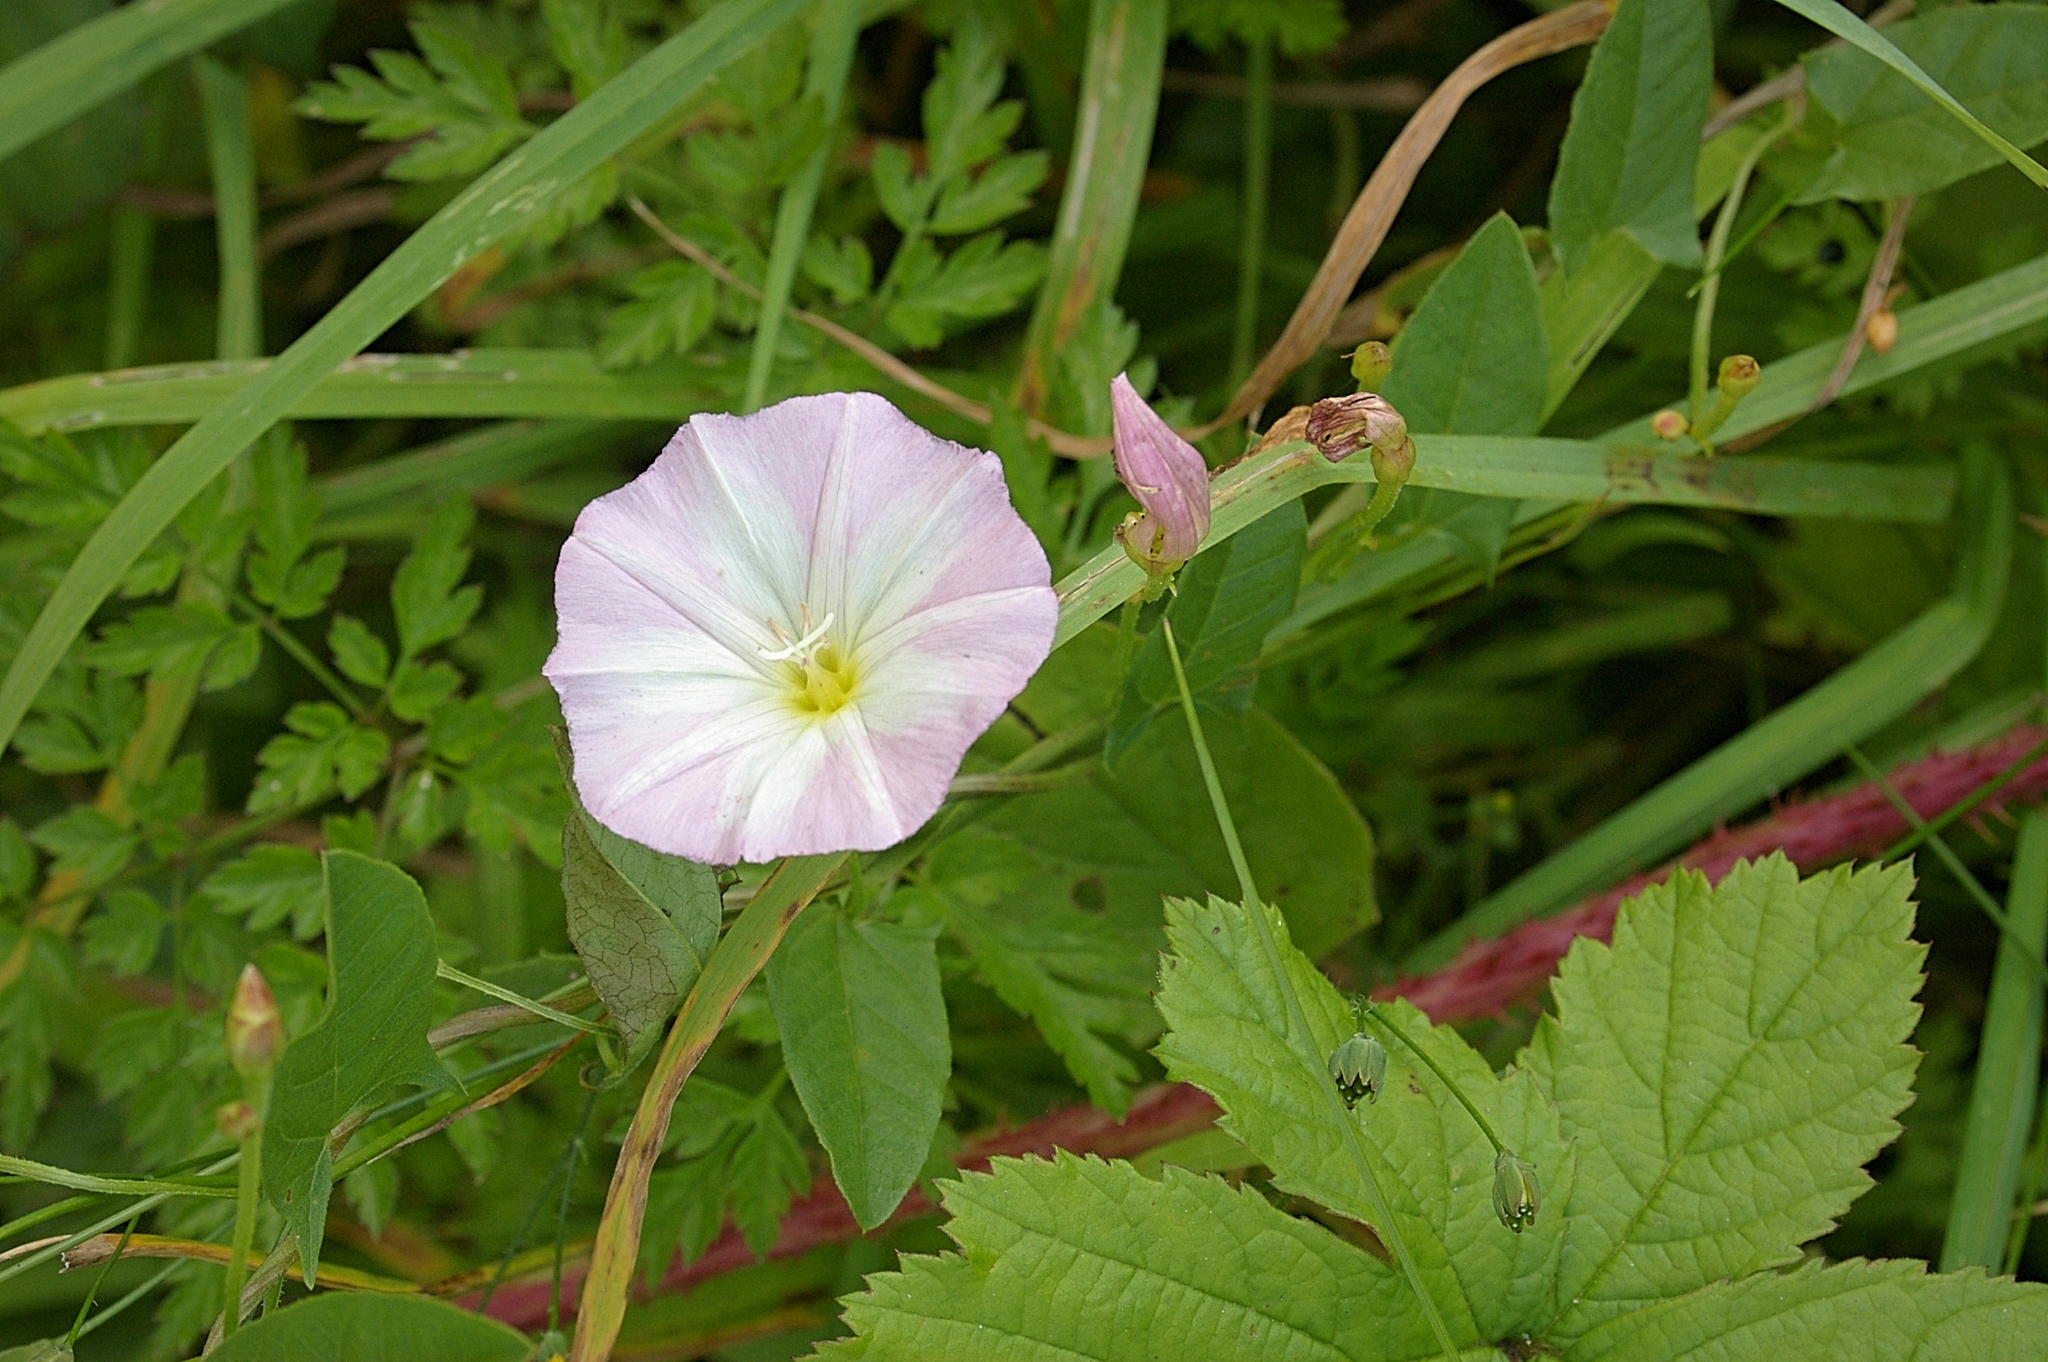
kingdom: Plantae
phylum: Tracheophyta
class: Magnoliopsida
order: Solanales
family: Convolvulaceae
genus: Convolvulus
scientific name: Convolvulus arvensis
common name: Field bindweed
